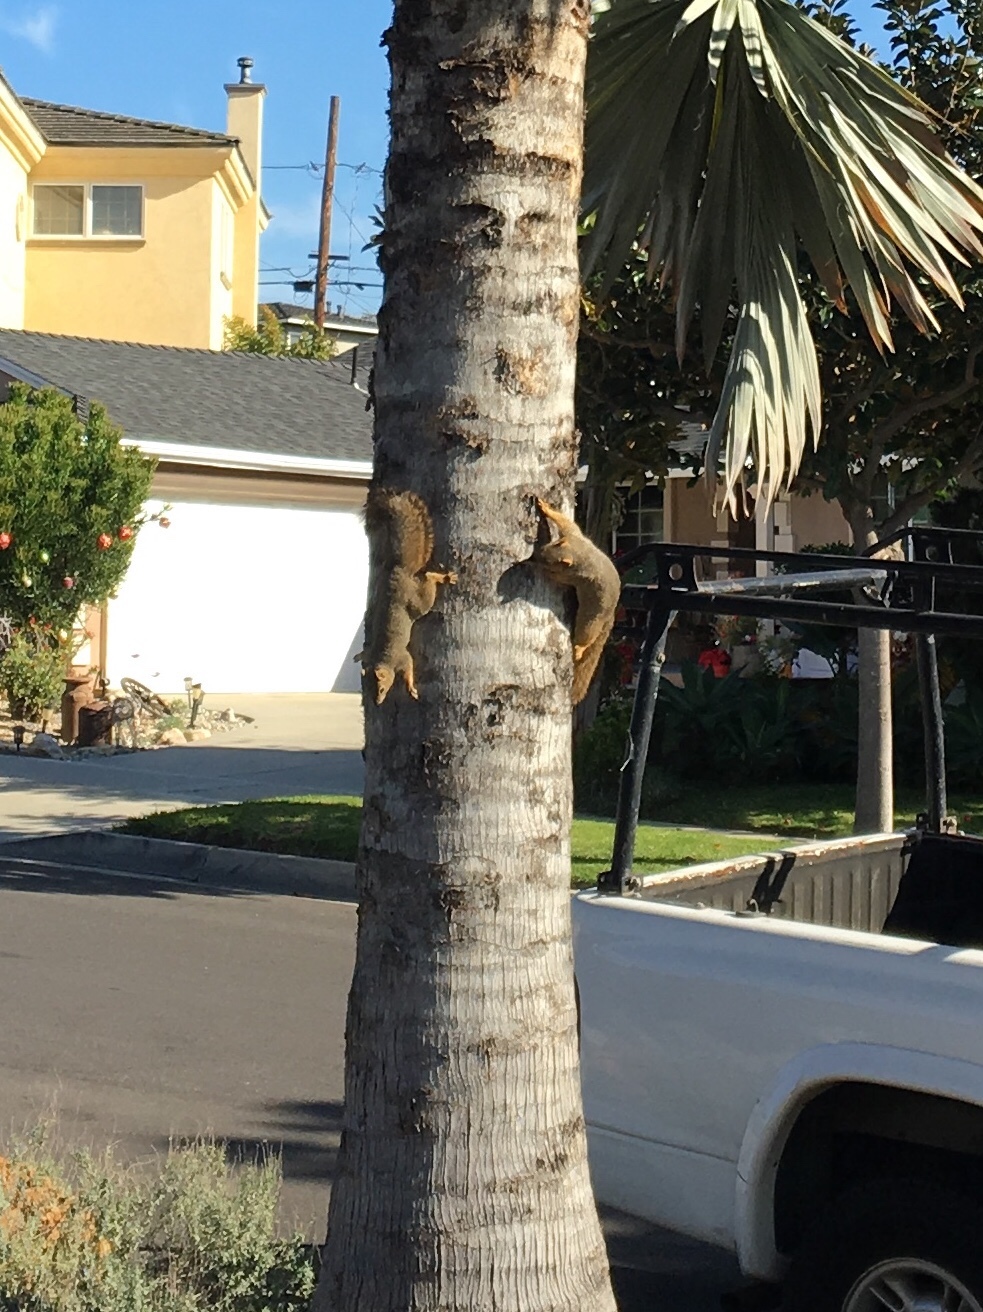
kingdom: Animalia
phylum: Chordata
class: Mammalia
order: Rodentia
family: Sciuridae
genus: Sciurus
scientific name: Sciurus niger
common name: Fox squirrel
